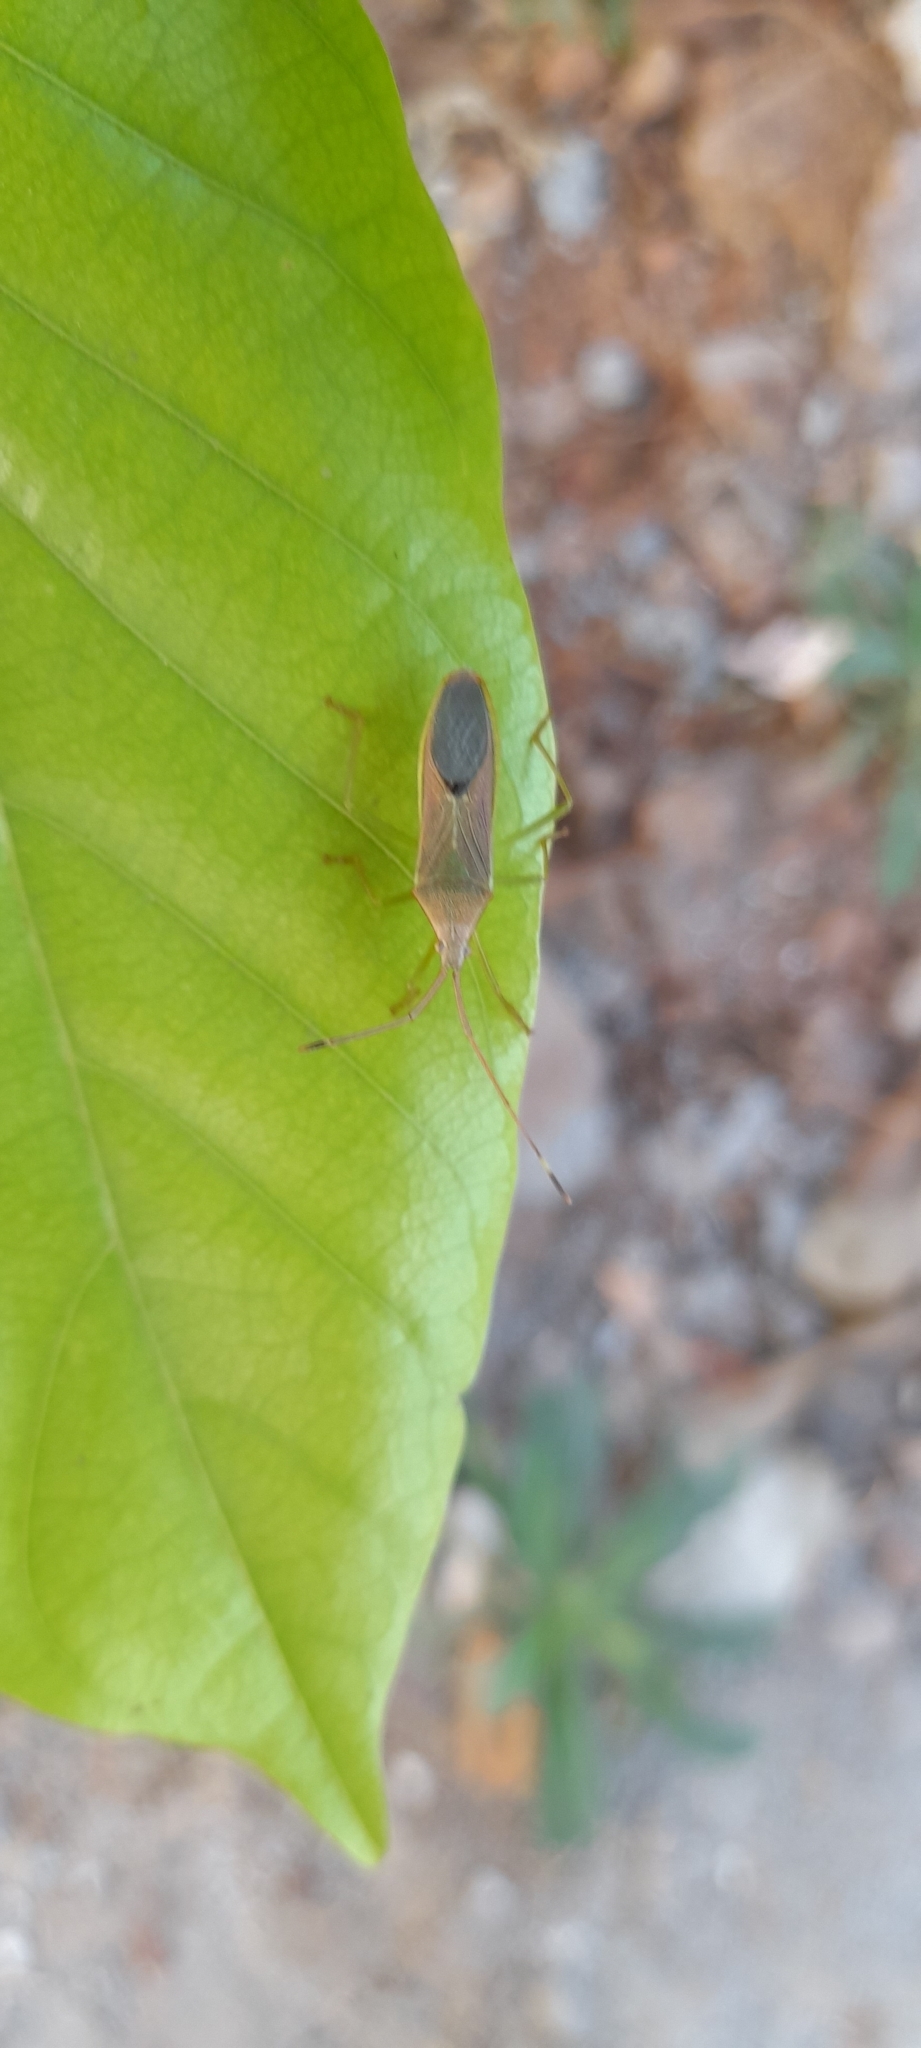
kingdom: Animalia
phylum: Arthropoda
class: Insecta
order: Hemiptera
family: Coreidae
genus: Homoeocerus
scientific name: Homoeocerus relatus
